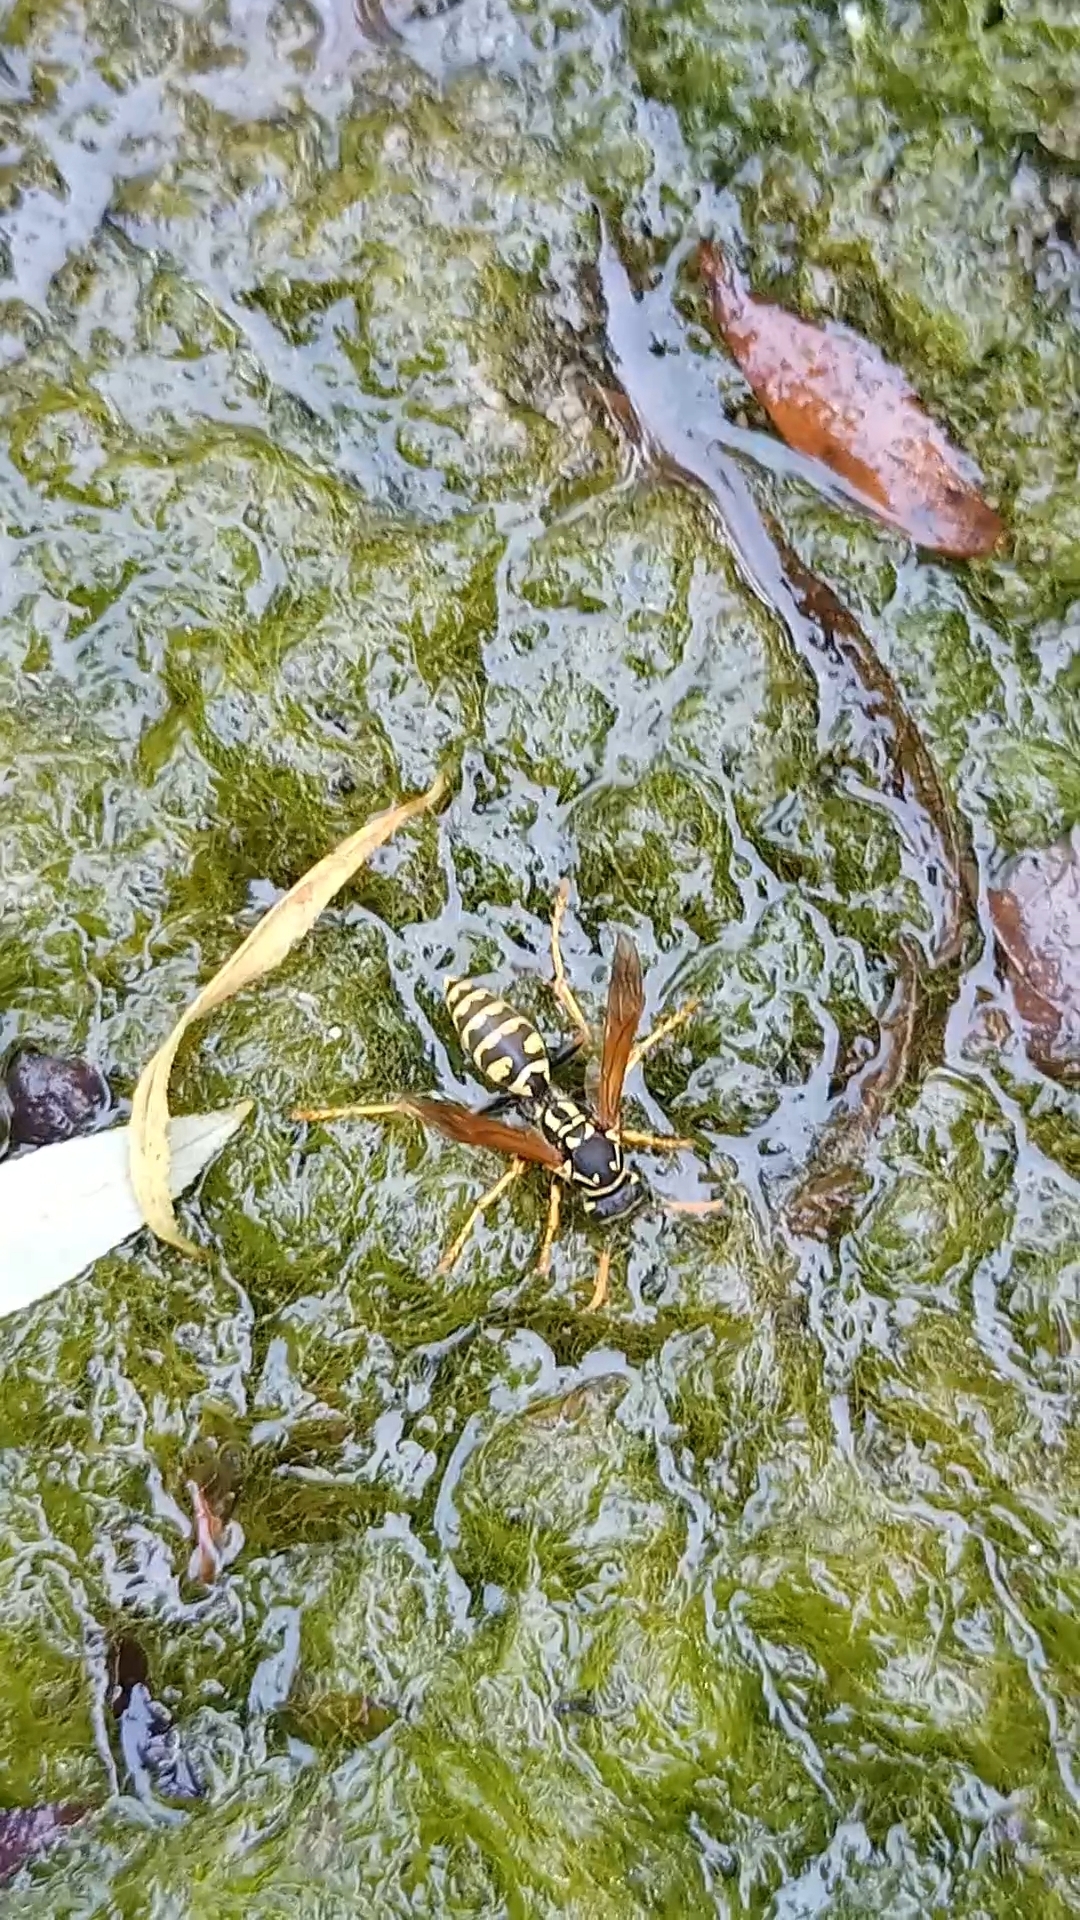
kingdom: Animalia
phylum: Arthropoda
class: Insecta
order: Hymenoptera
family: Eumenidae
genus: Polistes
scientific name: Polistes dominula
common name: Paper wasp
